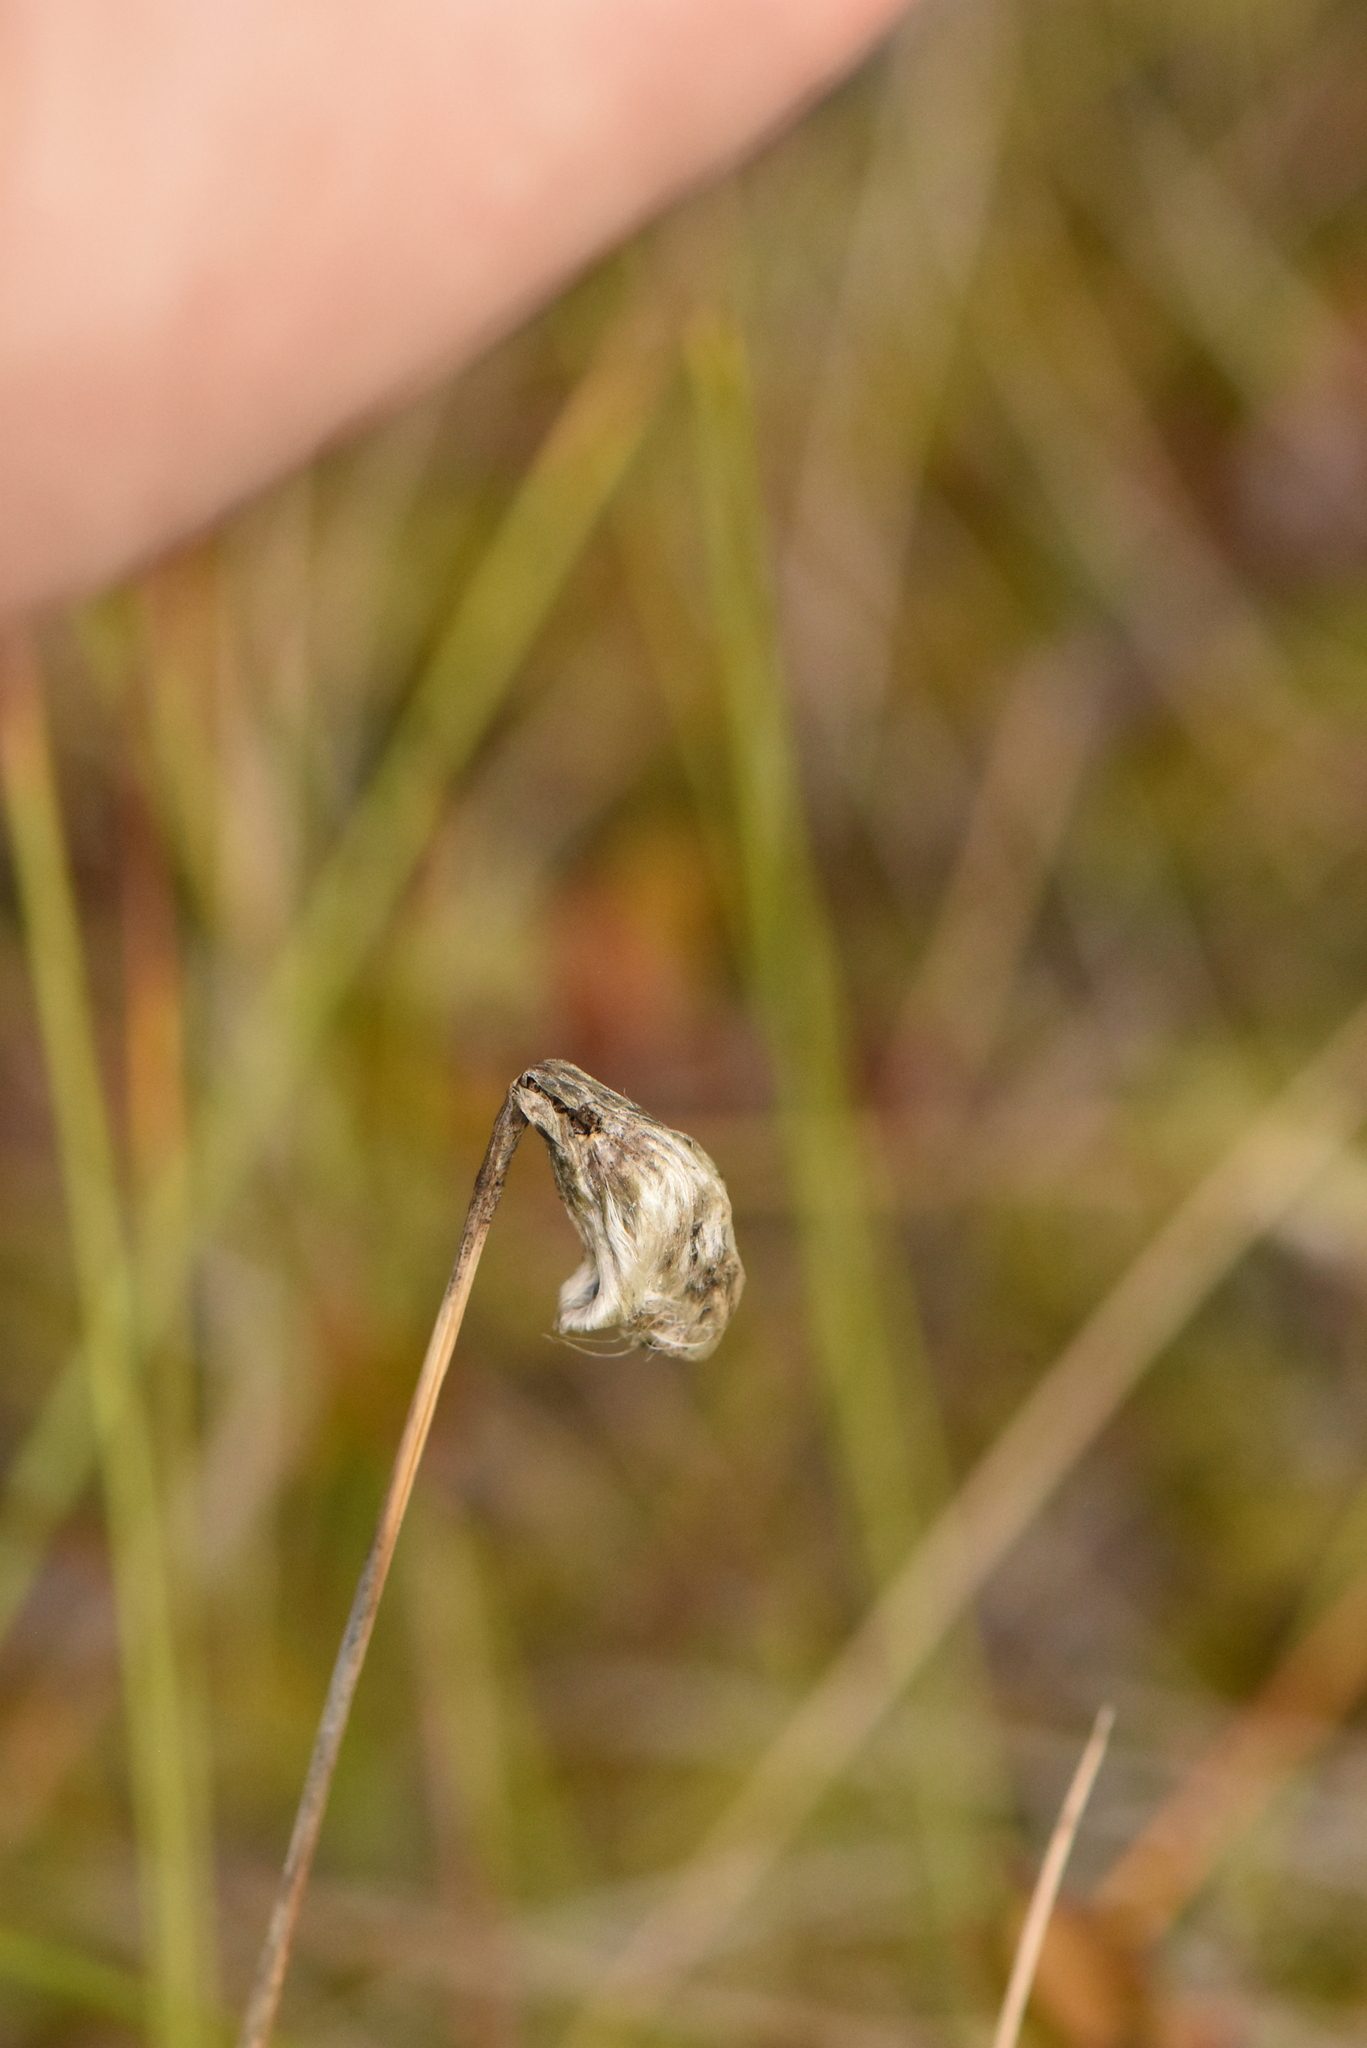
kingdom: Plantae
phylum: Tracheophyta
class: Liliopsida
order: Poales
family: Cyperaceae
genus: Eriophorum
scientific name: Eriophorum vaginatum
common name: Hare's-tail cottongrass
